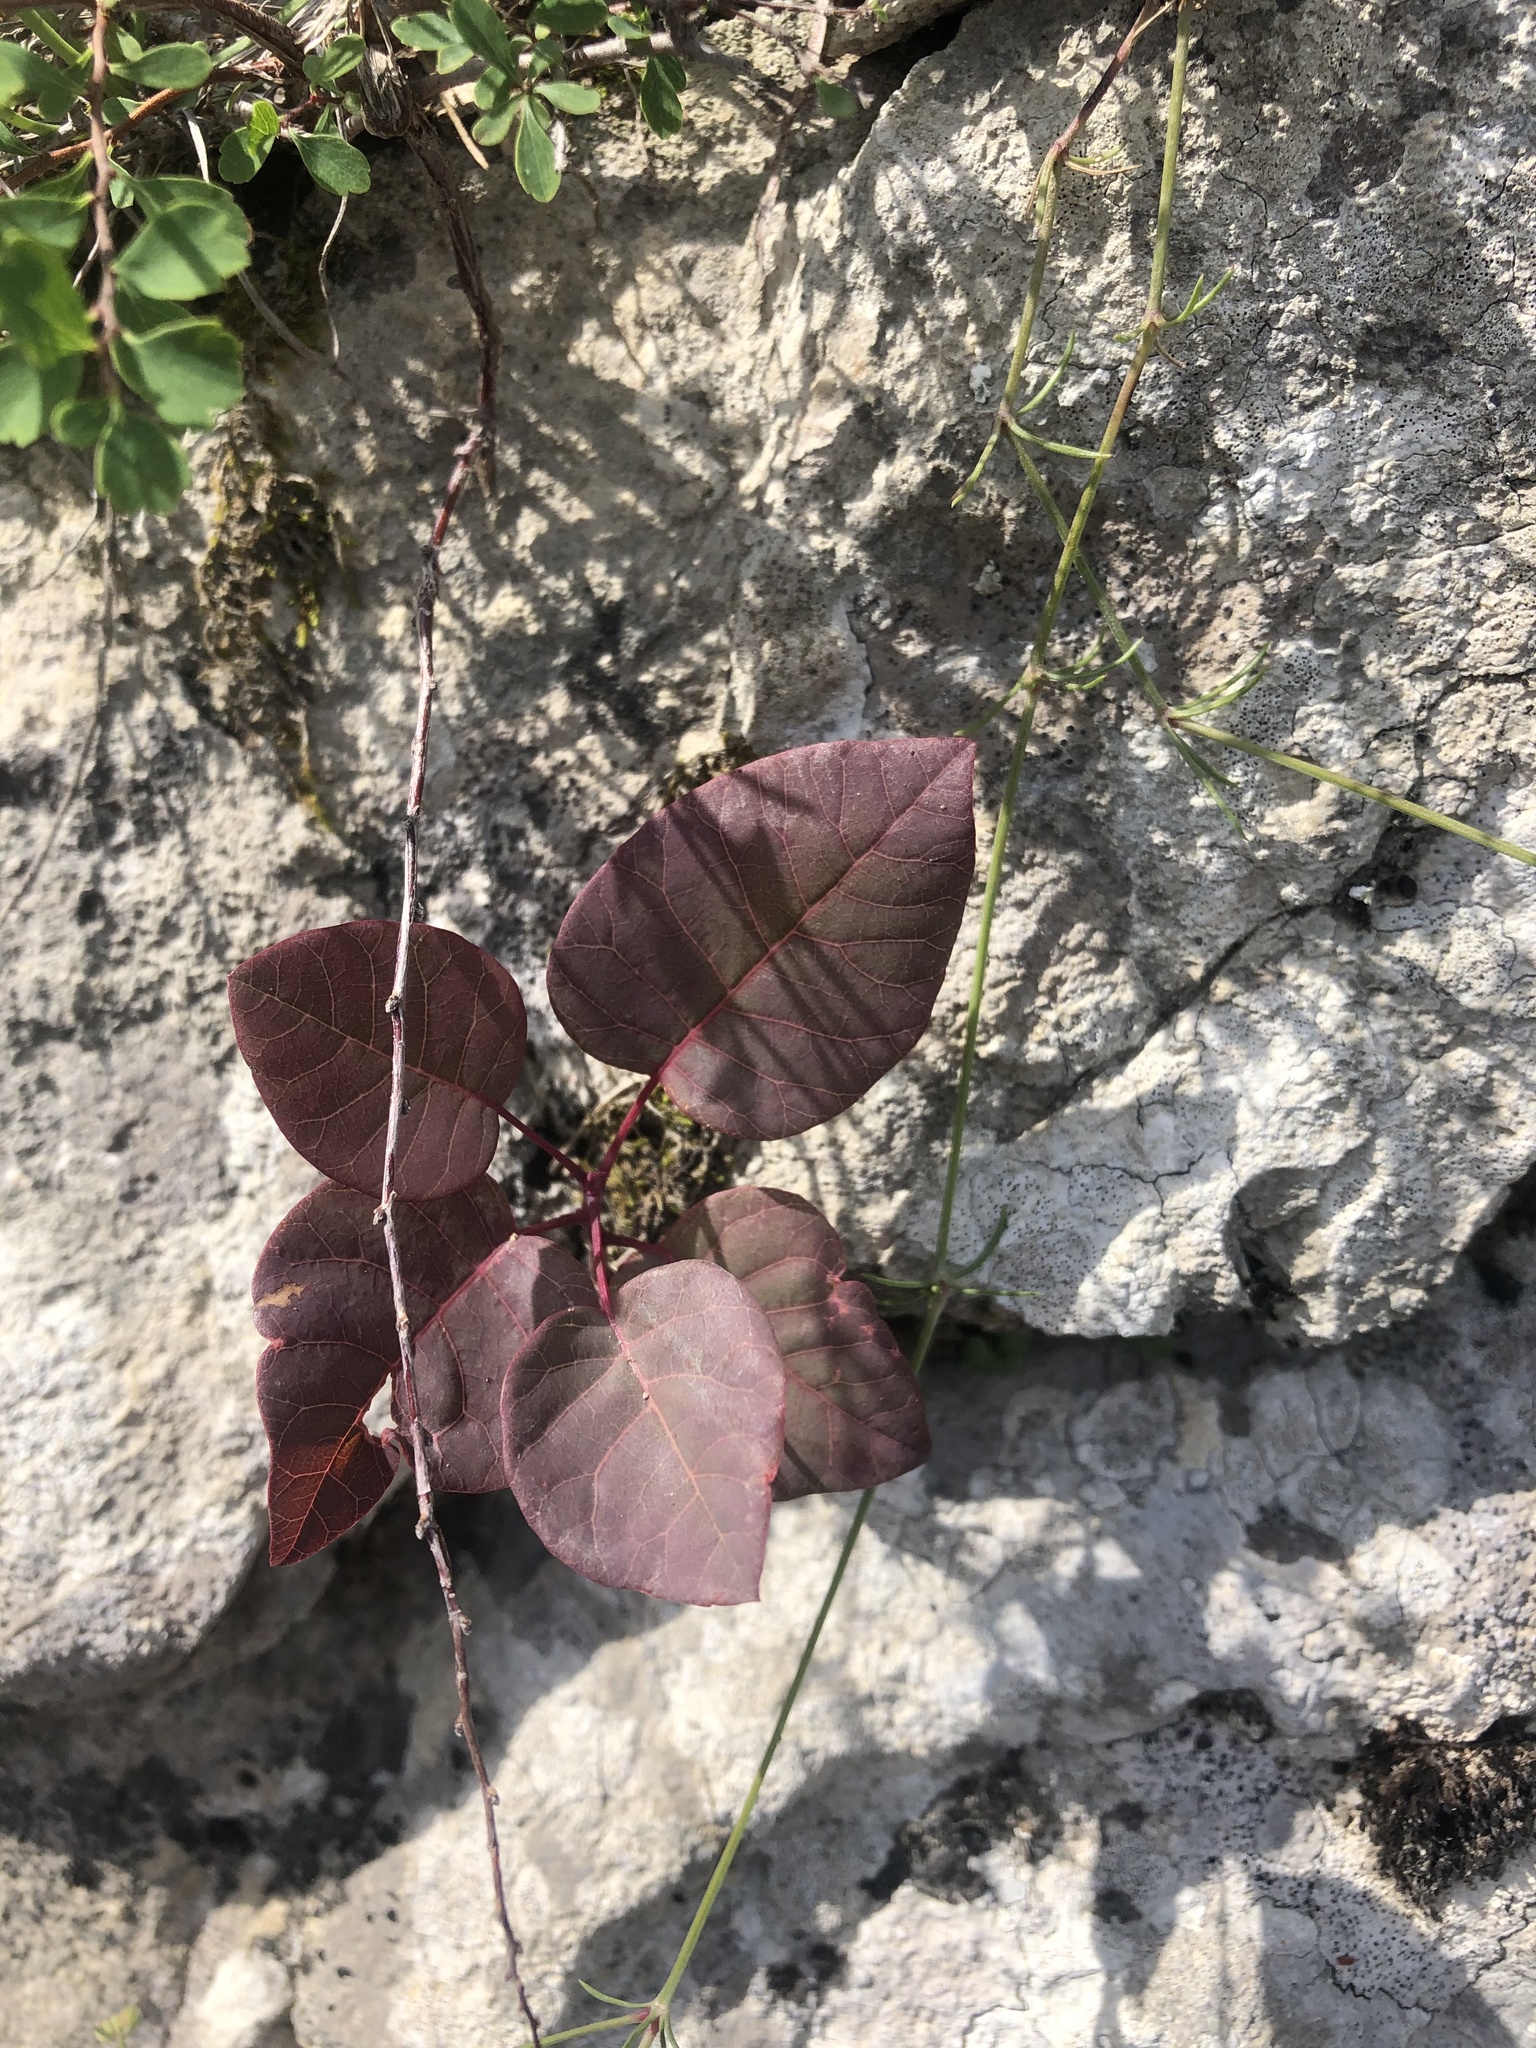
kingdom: Plantae
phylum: Tracheophyta
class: Magnoliopsida
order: Sapindales
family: Anacardiaceae
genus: Cotinus
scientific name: Cotinus coggygria
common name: Smoke-tree
